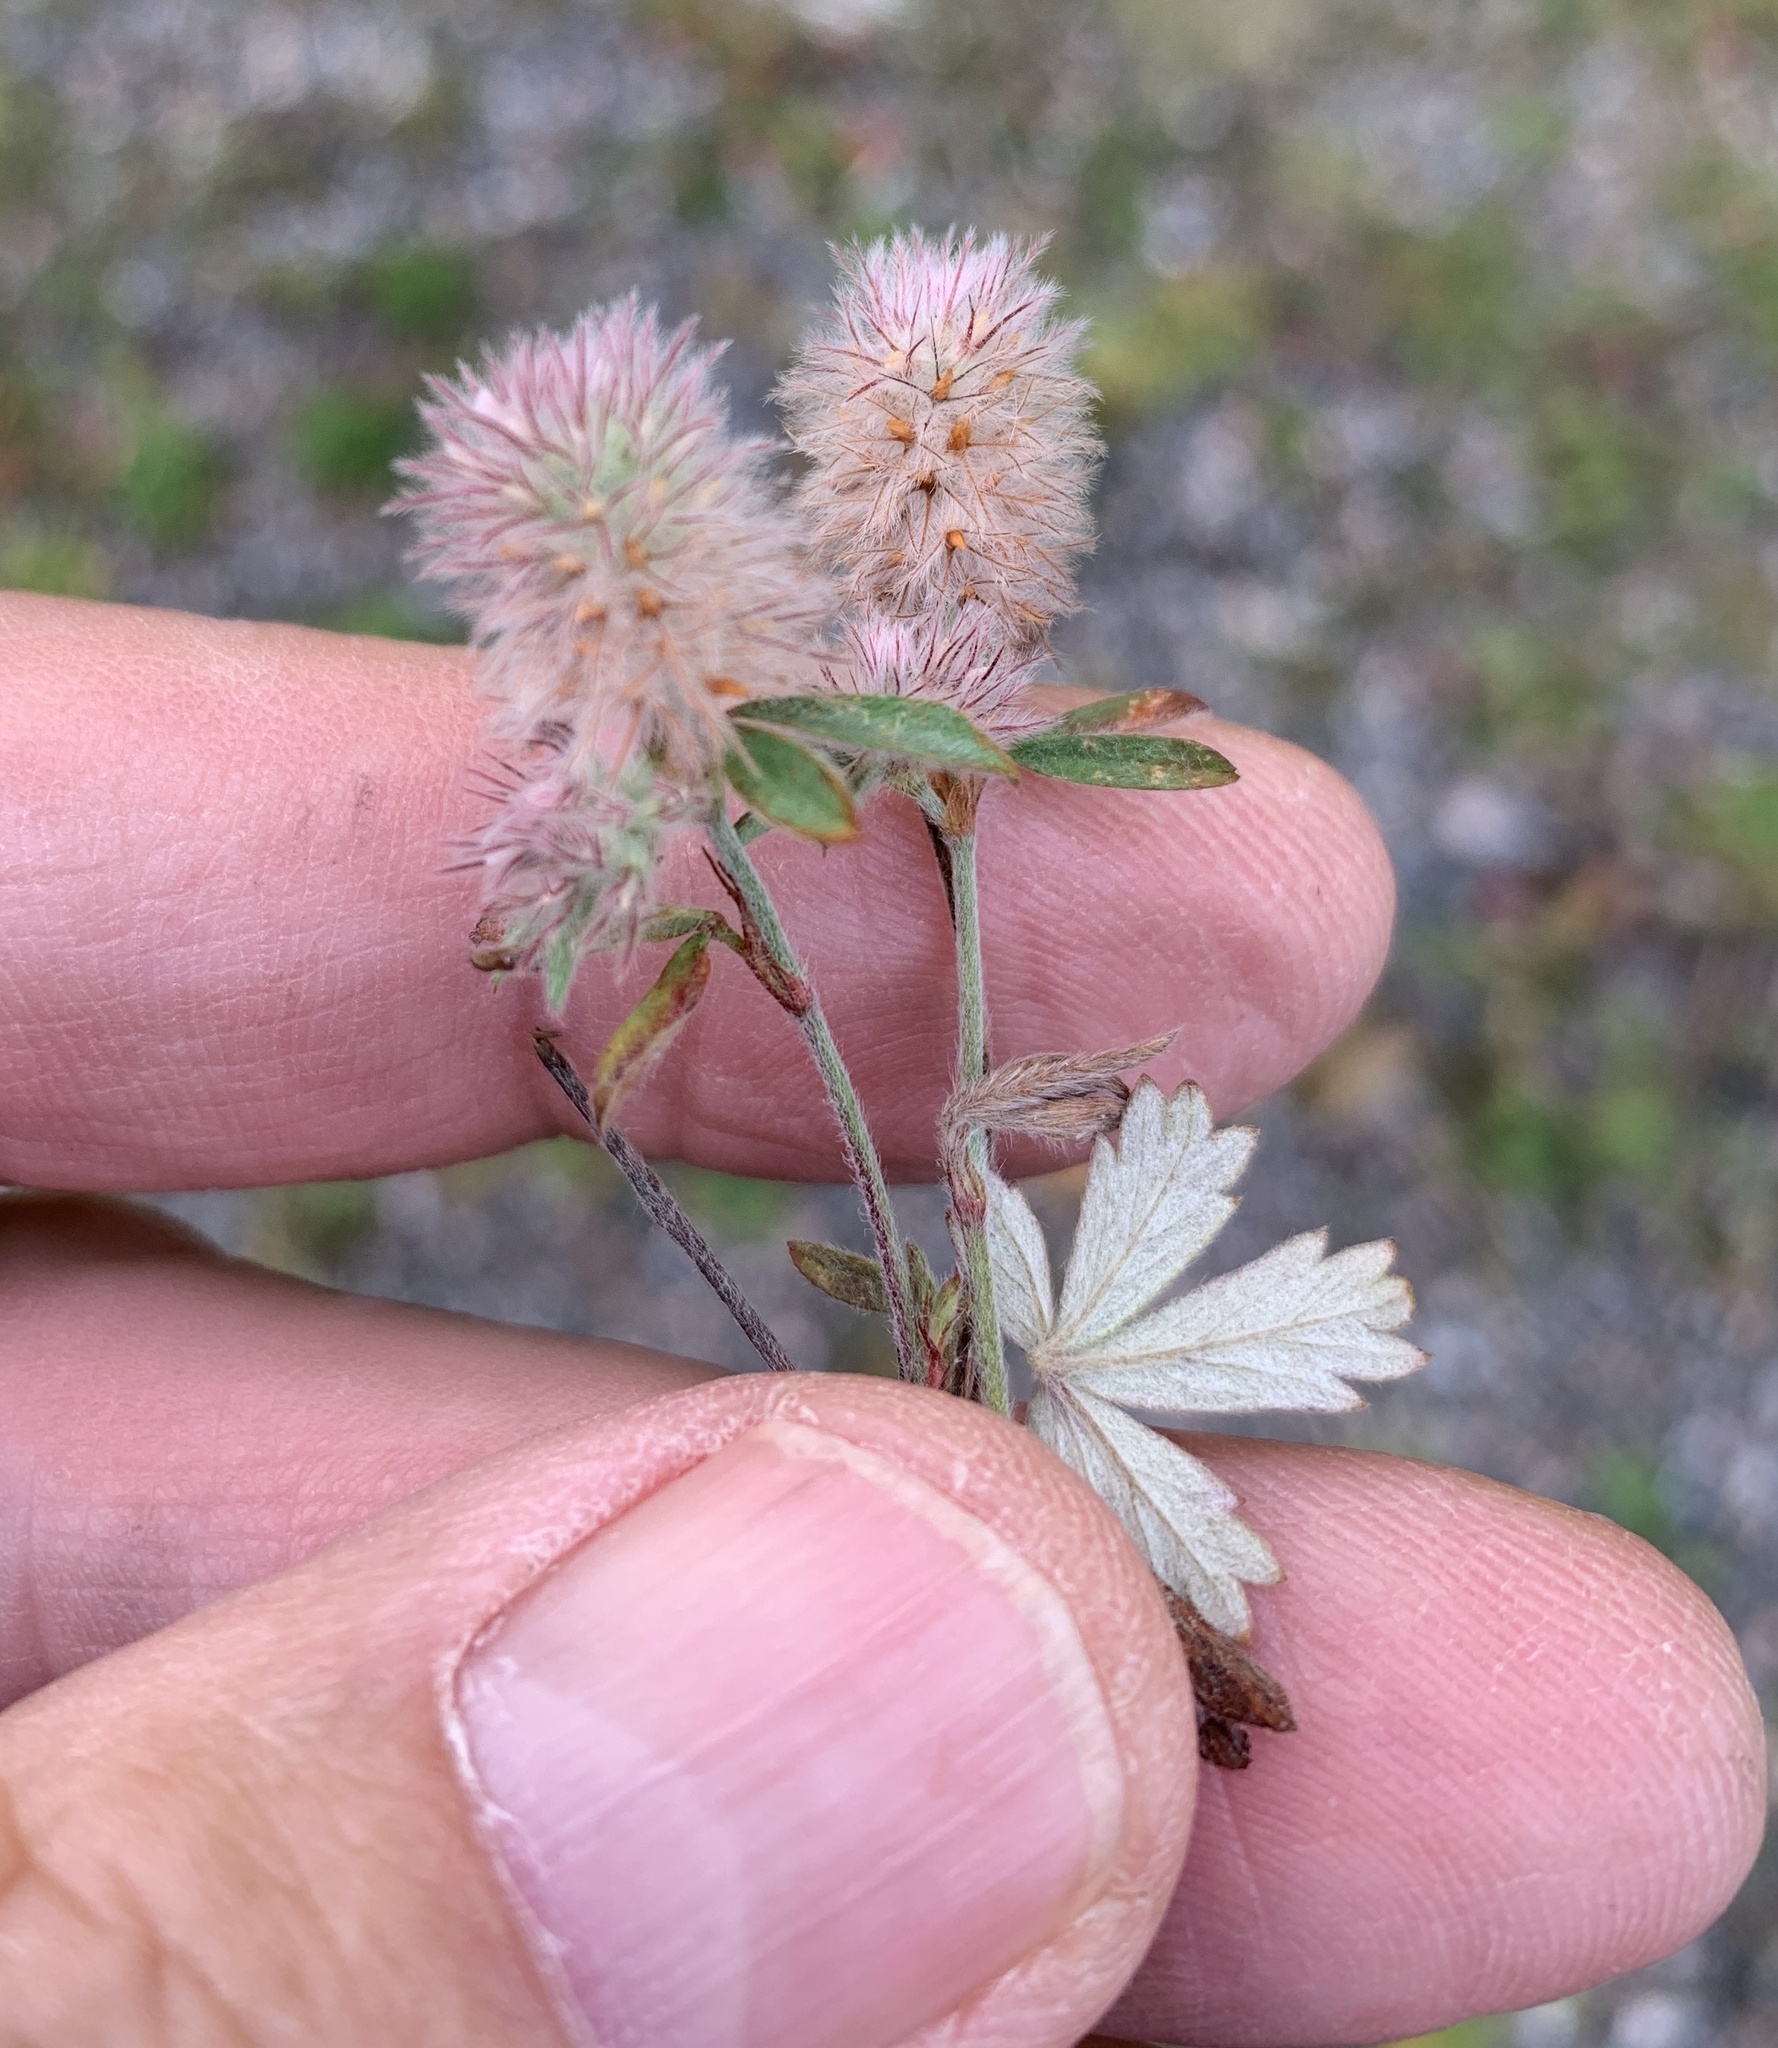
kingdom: Plantae
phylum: Tracheophyta
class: Magnoliopsida
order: Fabales
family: Fabaceae
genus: Trifolium
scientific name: Trifolium arvense
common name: Hare's-foot clover
